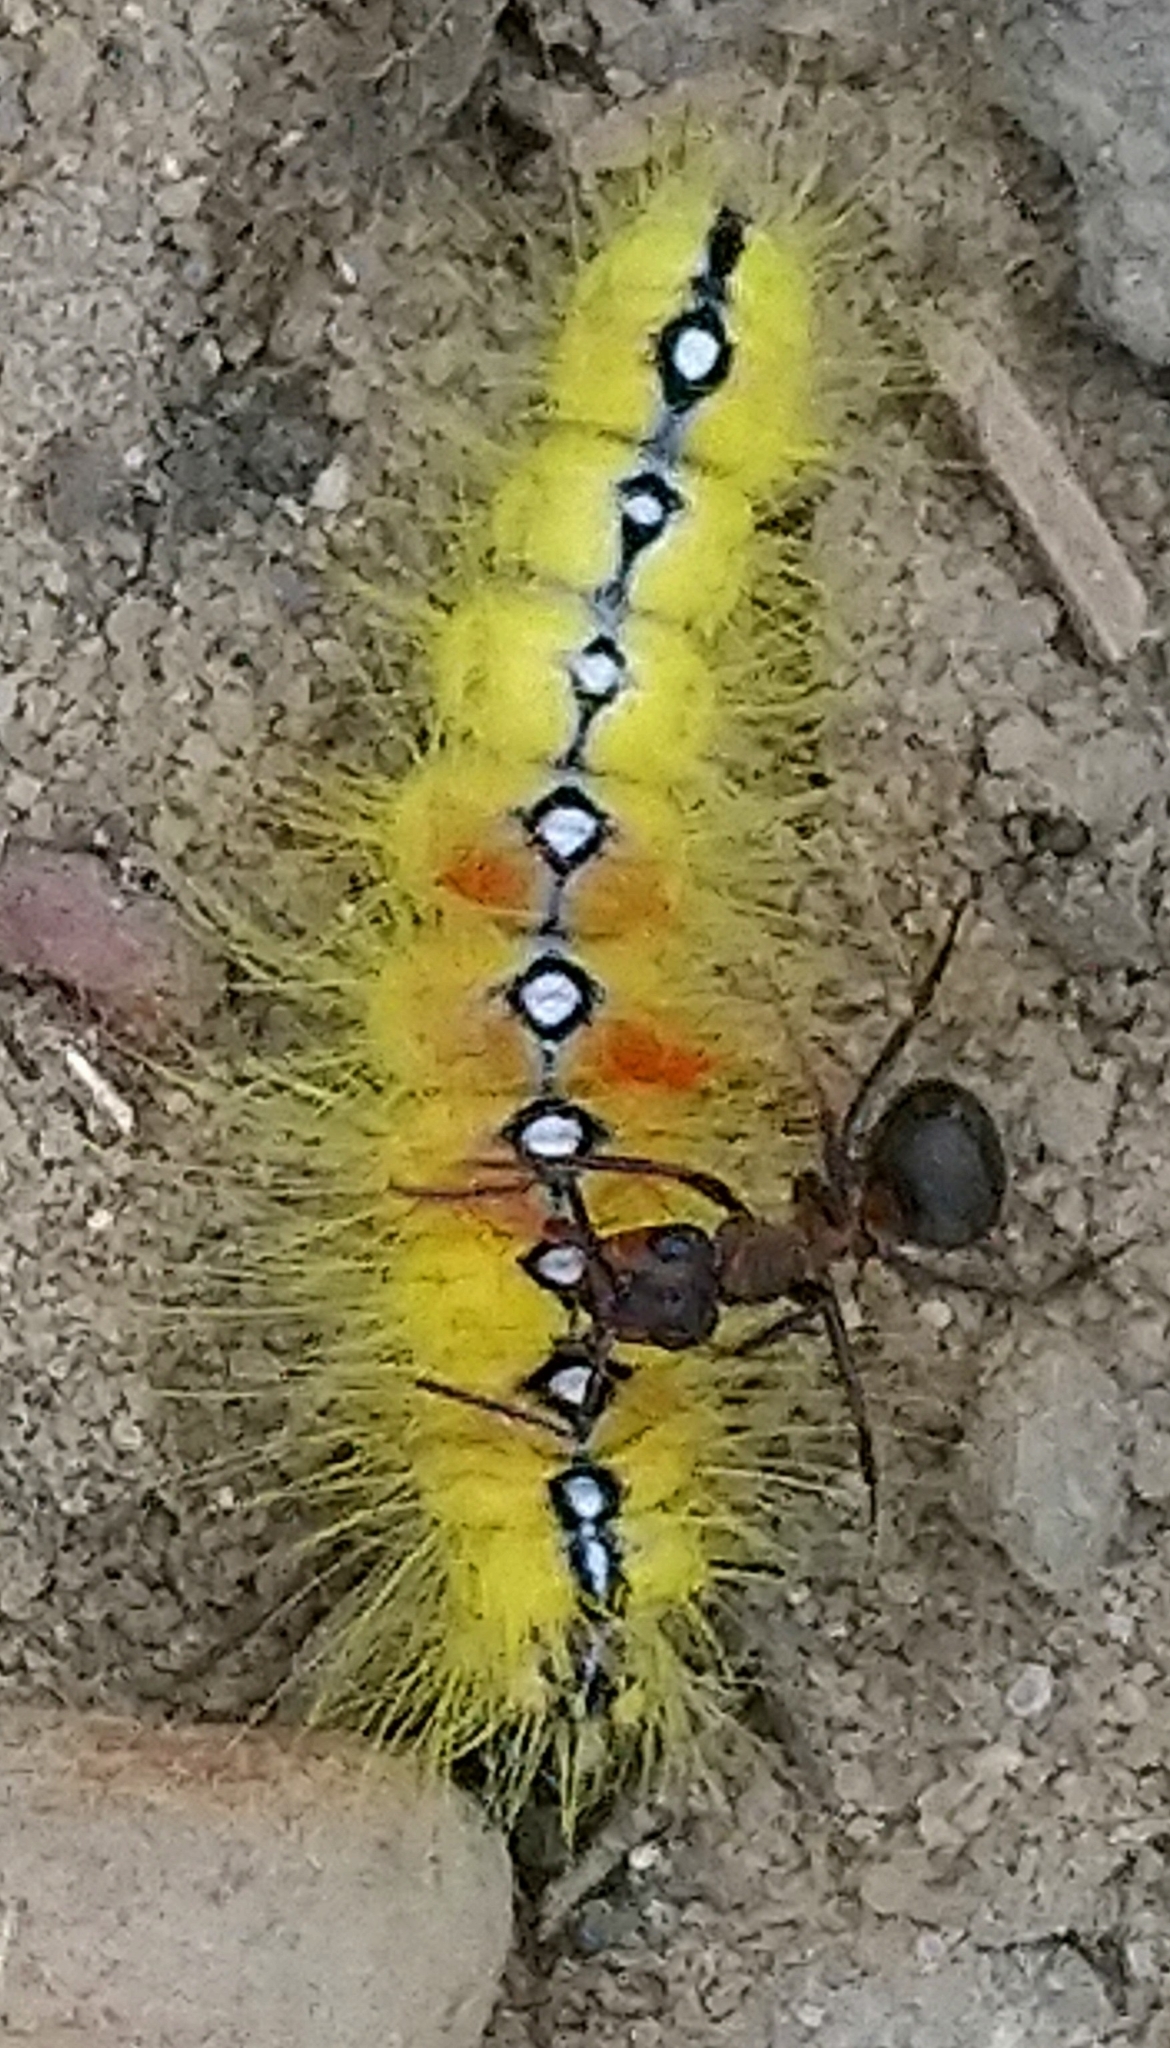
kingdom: Animalia
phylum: Arthropoda
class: Insecta
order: Lepidoptera
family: Noctuidae
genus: Acronicta
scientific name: Acronicta aceris
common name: Sycamore
